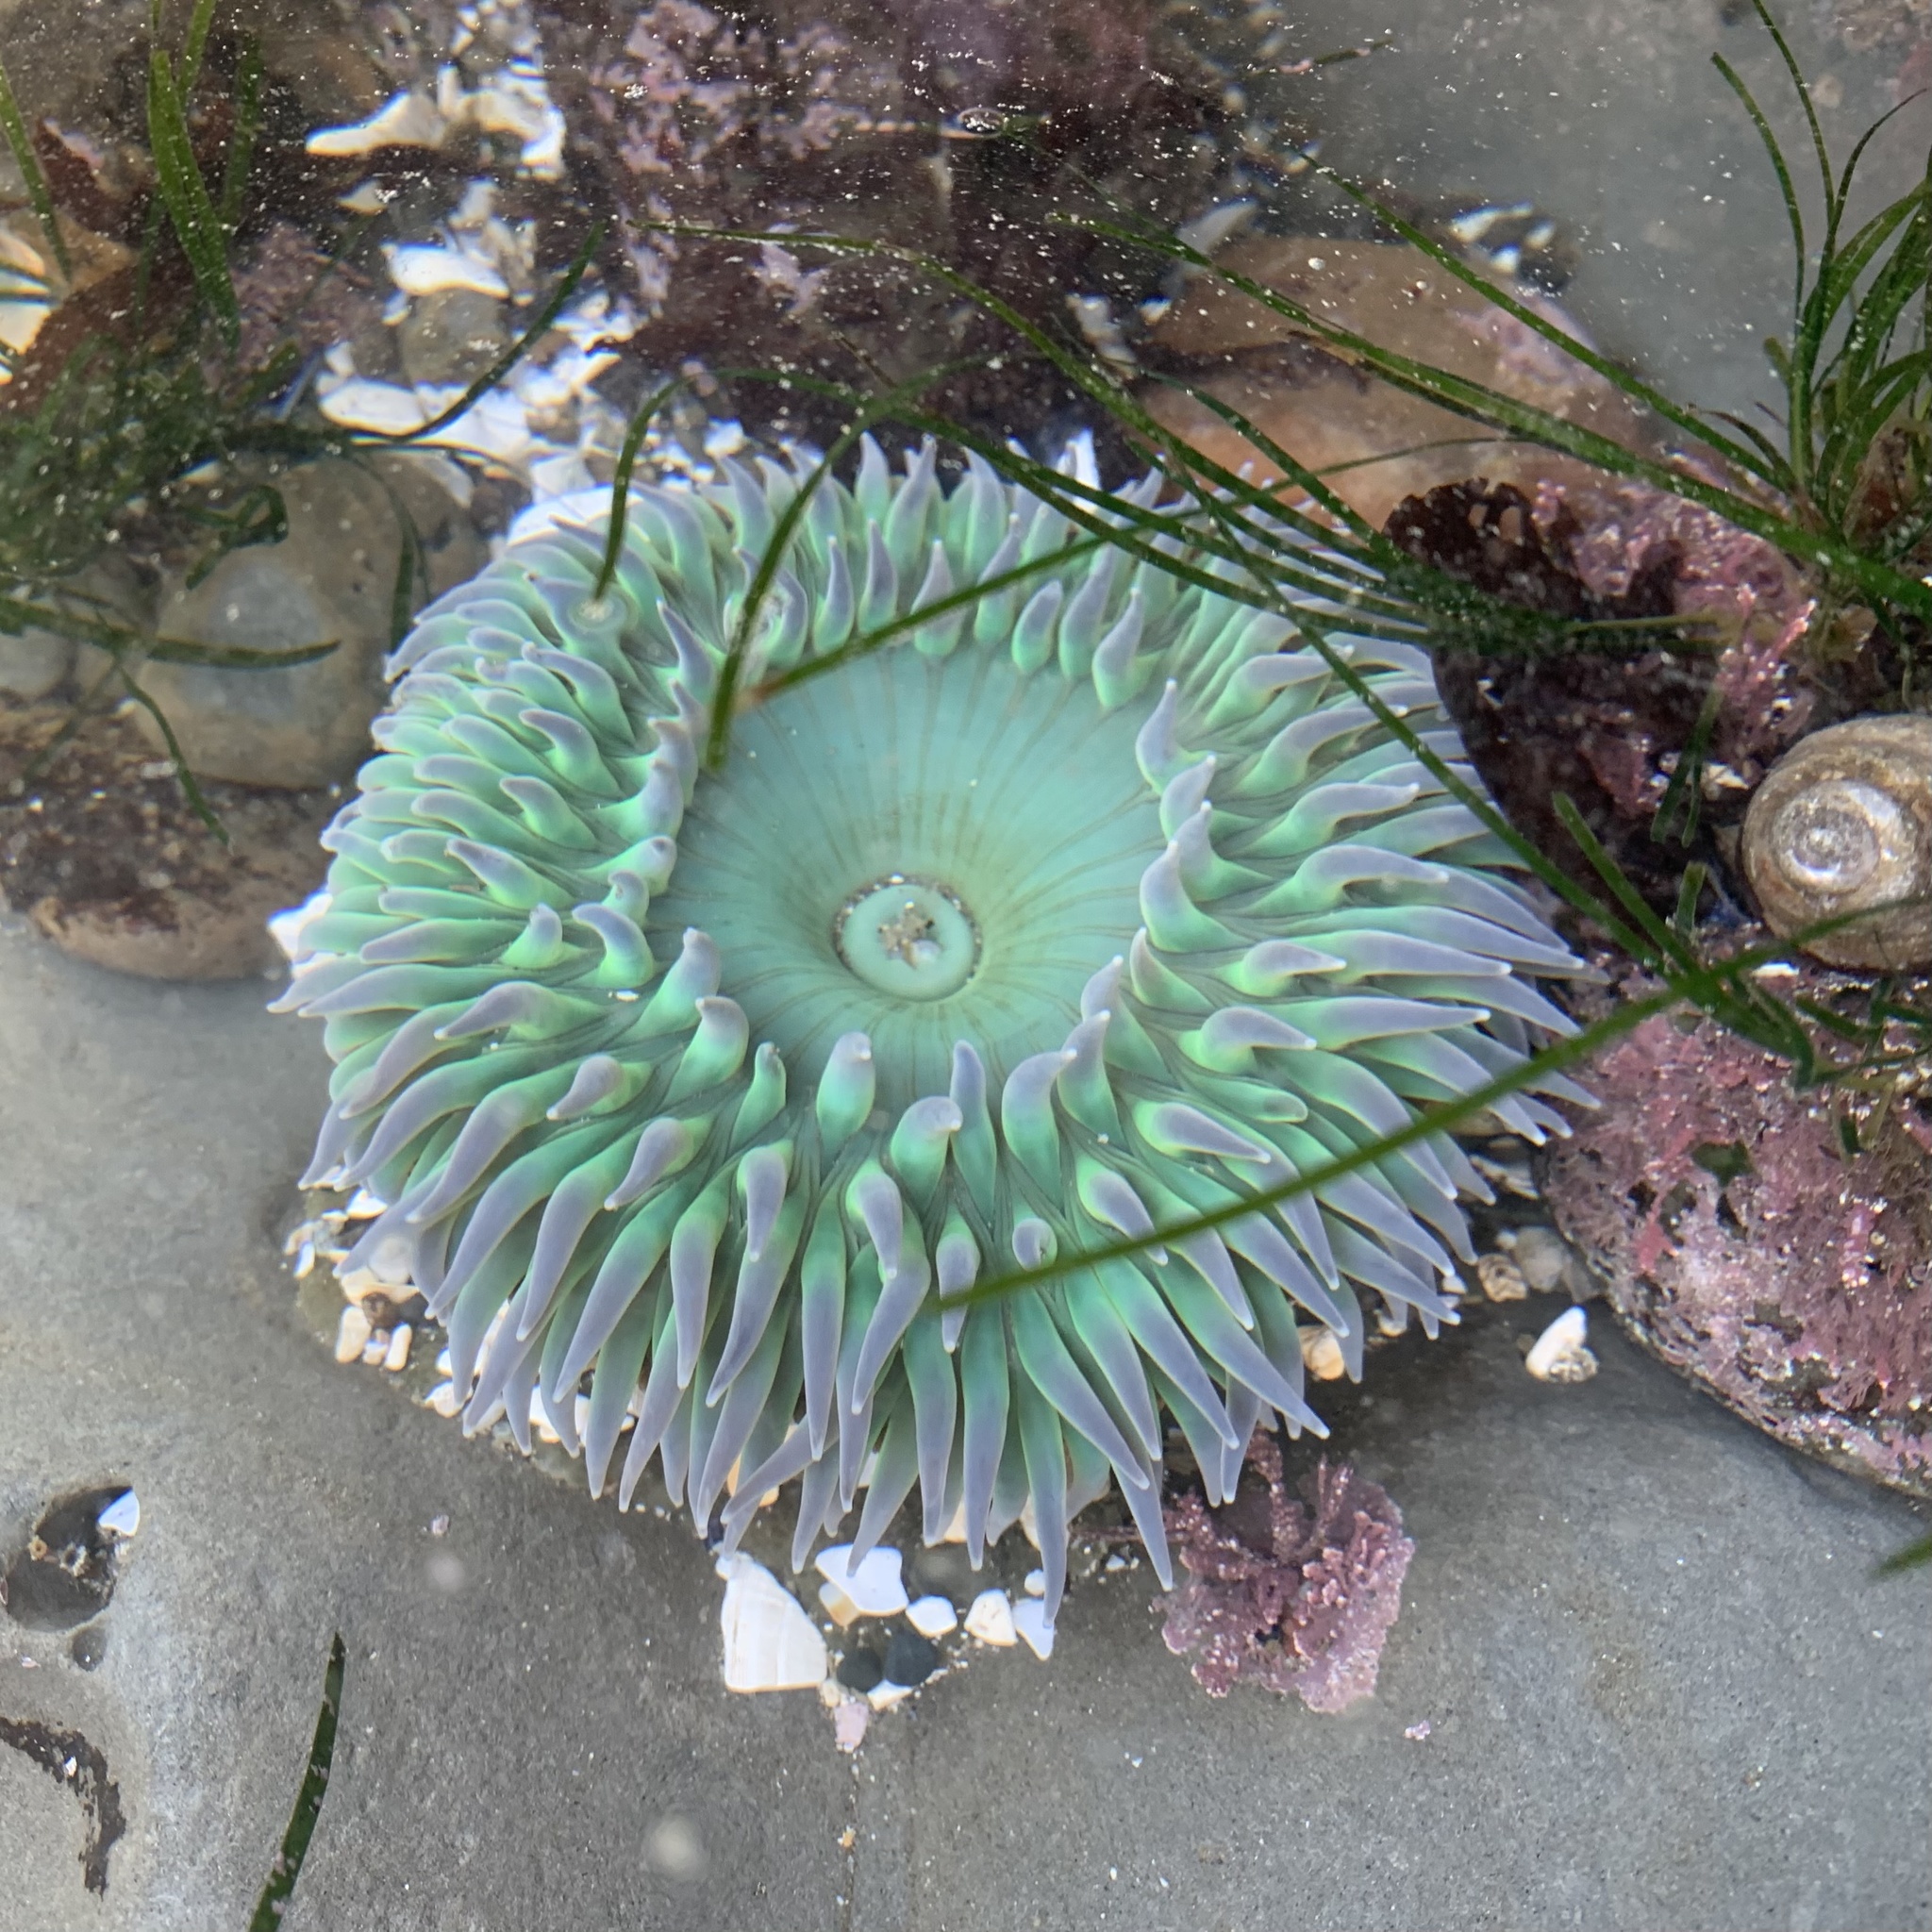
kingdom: Animalia
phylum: Cnidaria
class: Anthozoa
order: Actiniaria
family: Actiniidae
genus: Anthopleura
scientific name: Anthopleura xanthogrammica
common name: Giant green anemone
